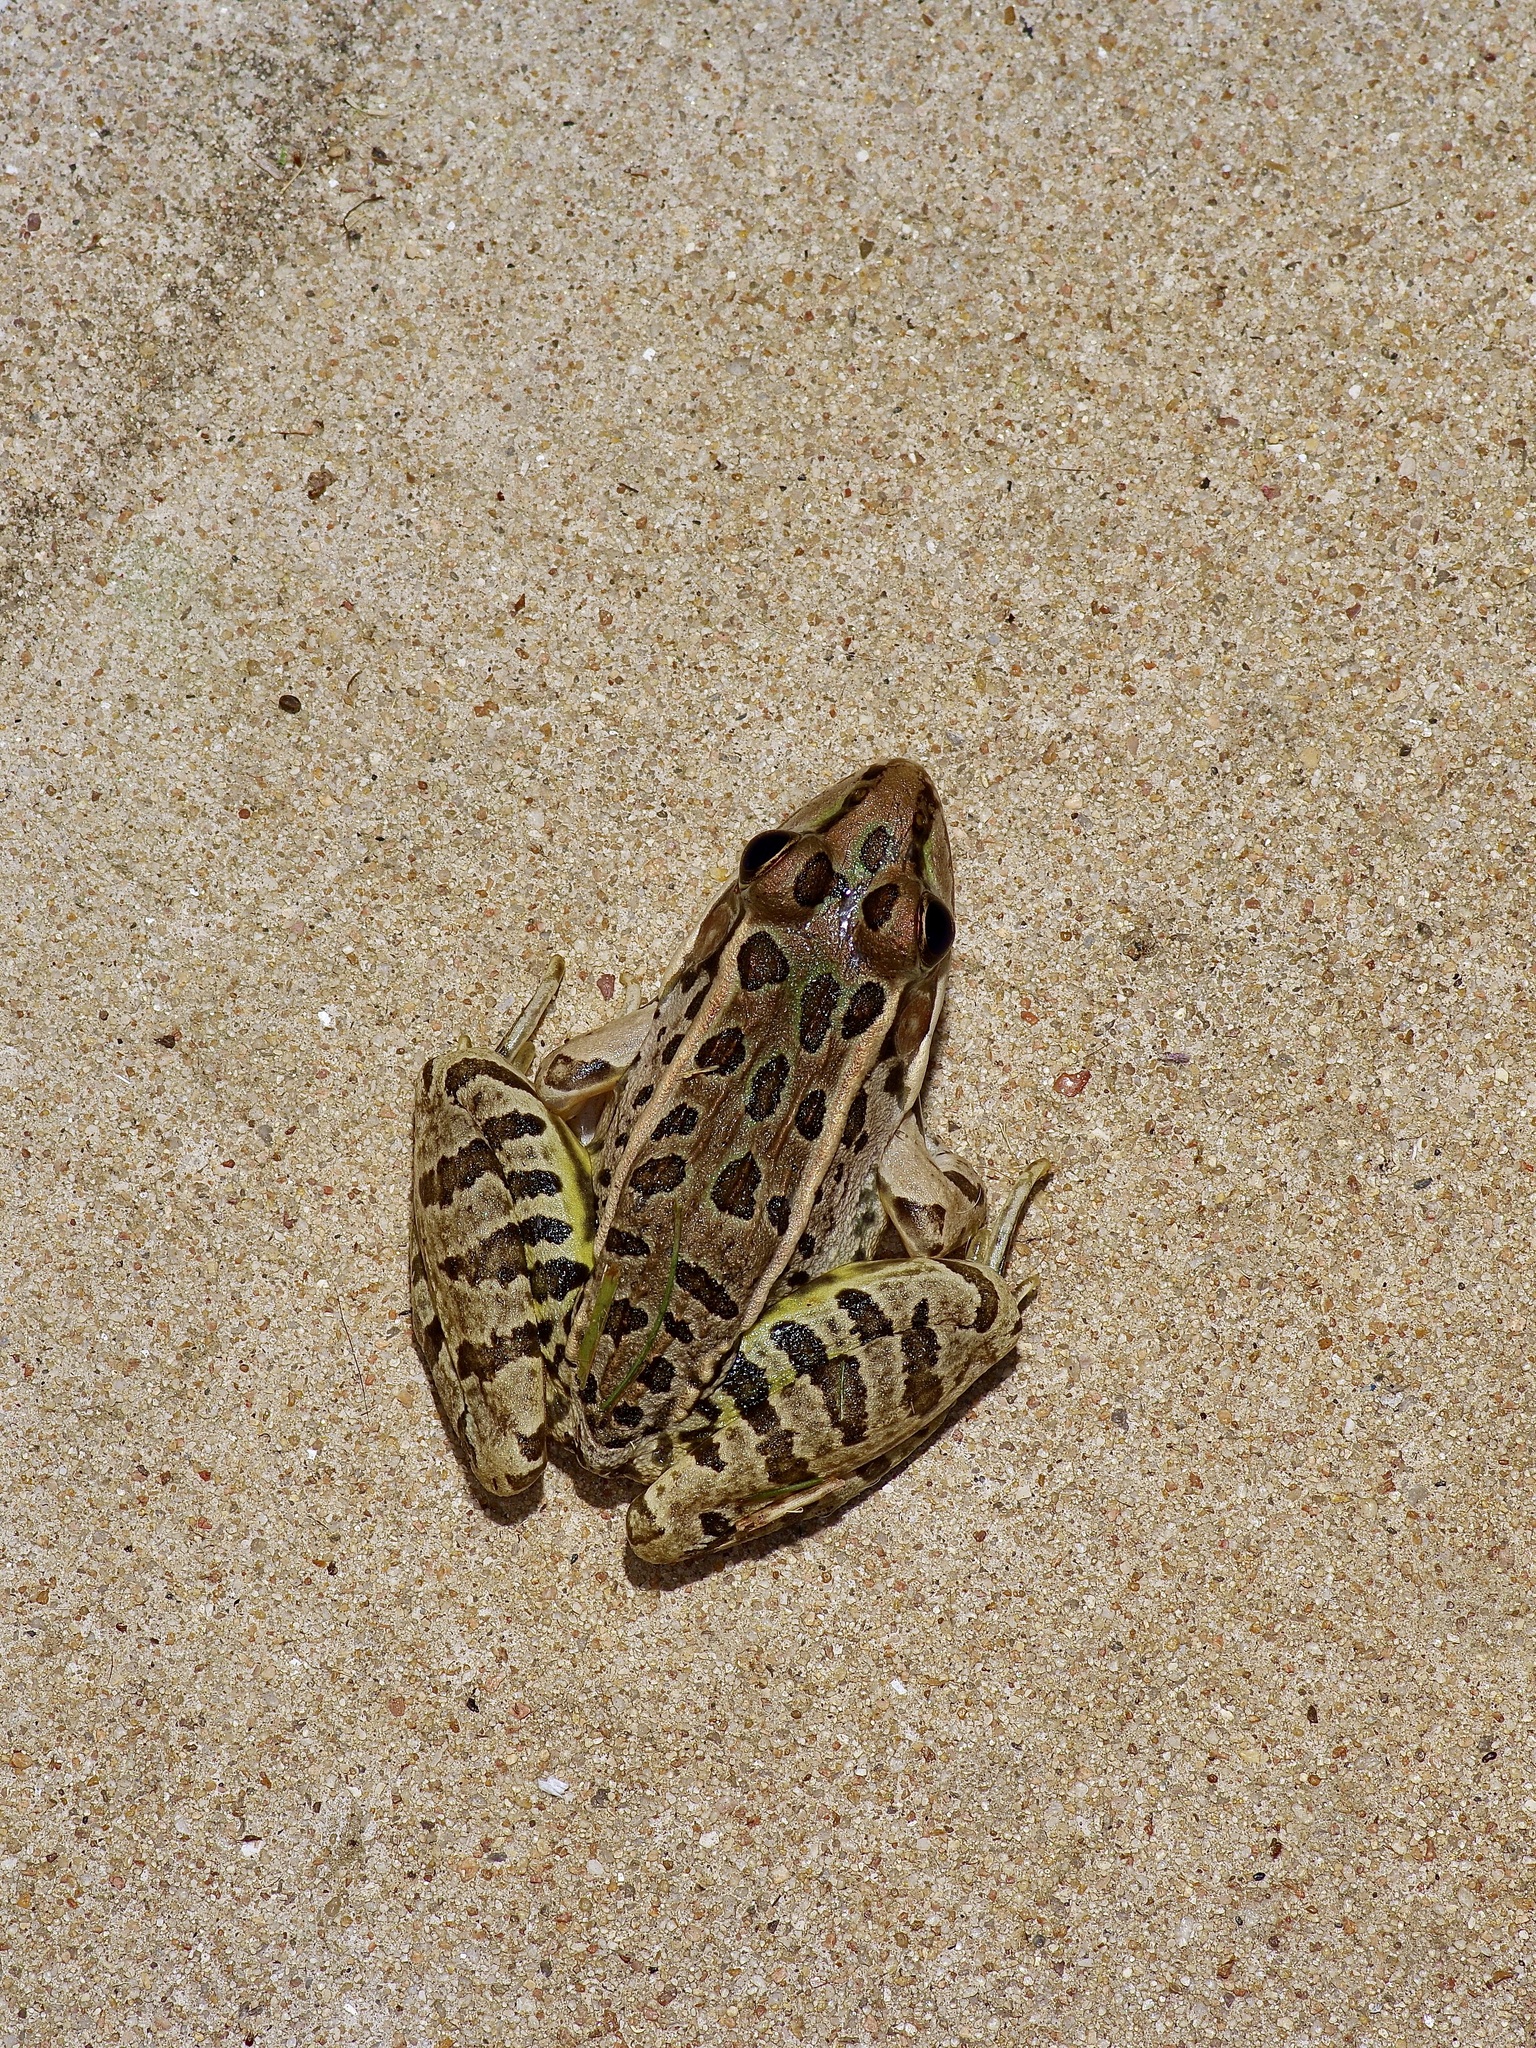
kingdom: Animalia
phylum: Chordata
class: Amphibia
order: Anura
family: Ranidae
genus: Lithobates
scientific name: Lithobates berlandieri
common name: Rio grande leopard frog
